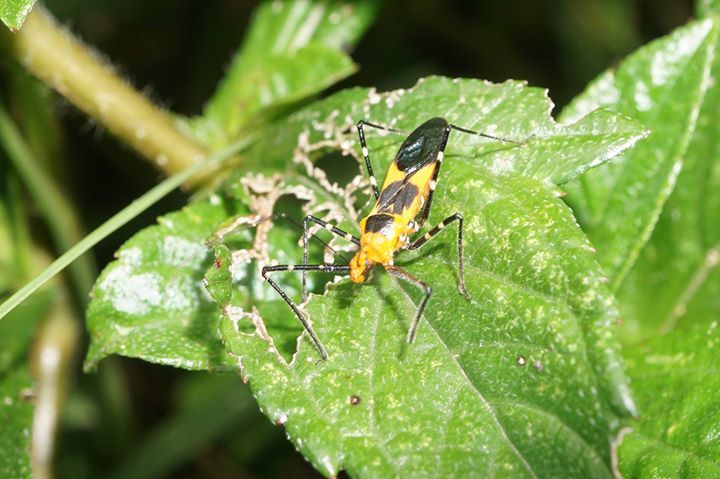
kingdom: Animalia
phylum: Arthropoda
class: Insecta
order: Hemiptera
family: Reduviidae
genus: Zelus
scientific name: Zelus longipes
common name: Milkweed assassin bug
